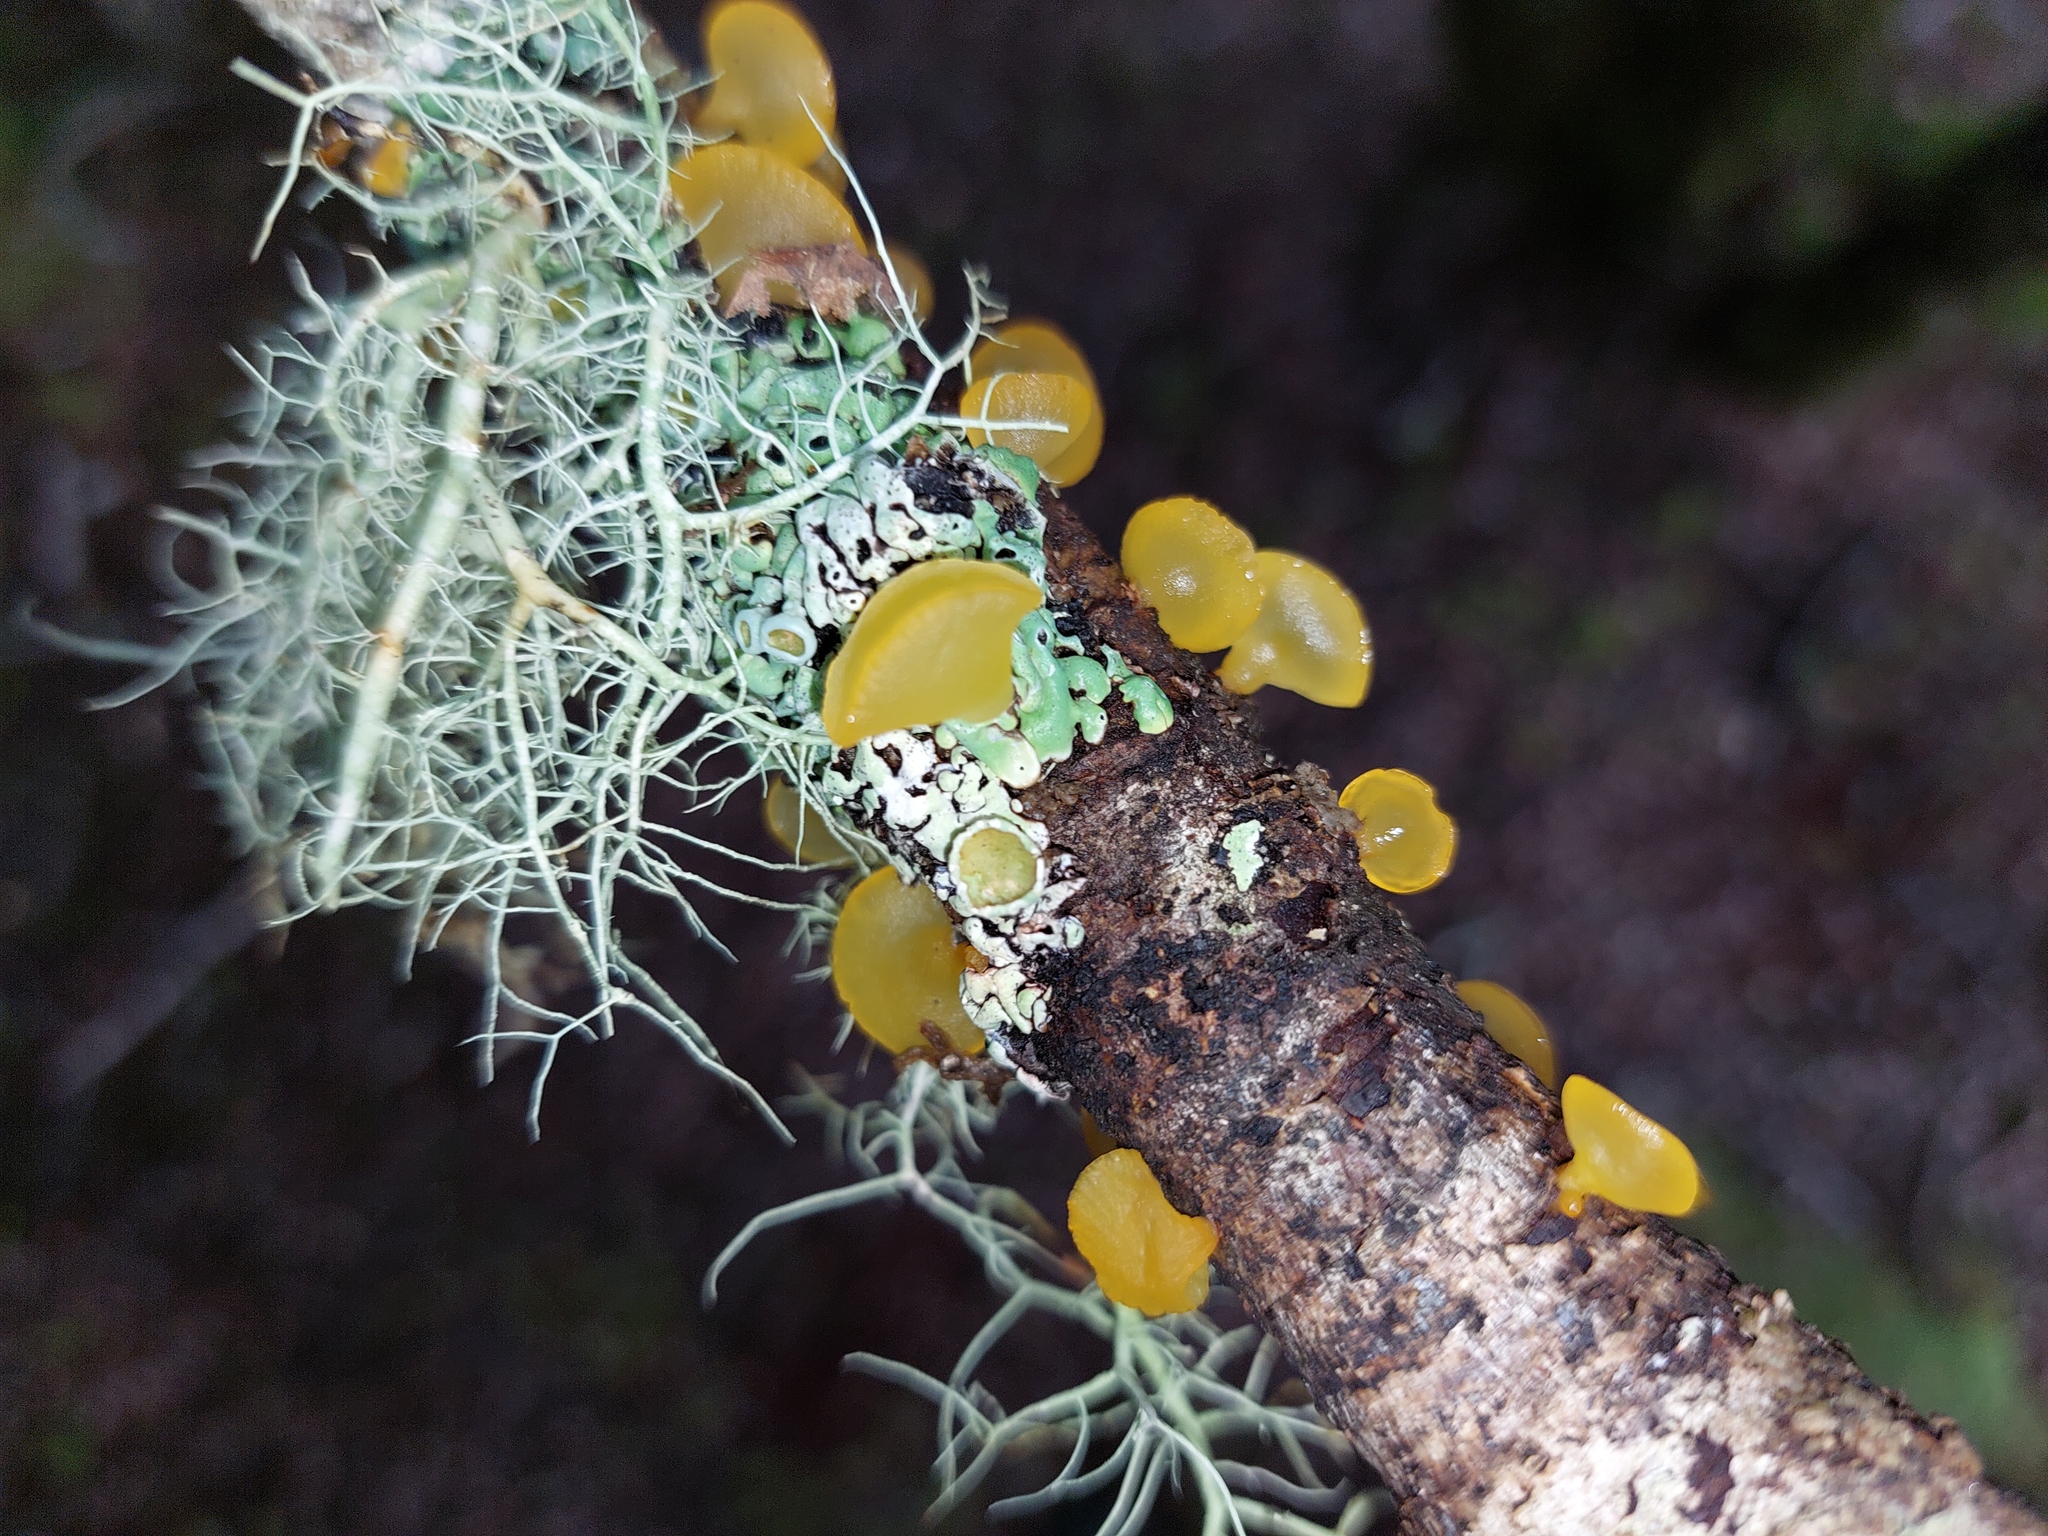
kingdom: Fungi
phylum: Basidiomycota
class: Dacrymycetes
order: Dacrymycetales
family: Dacrymycetaceae
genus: Heterotextus
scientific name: Heterotextus miltinus
